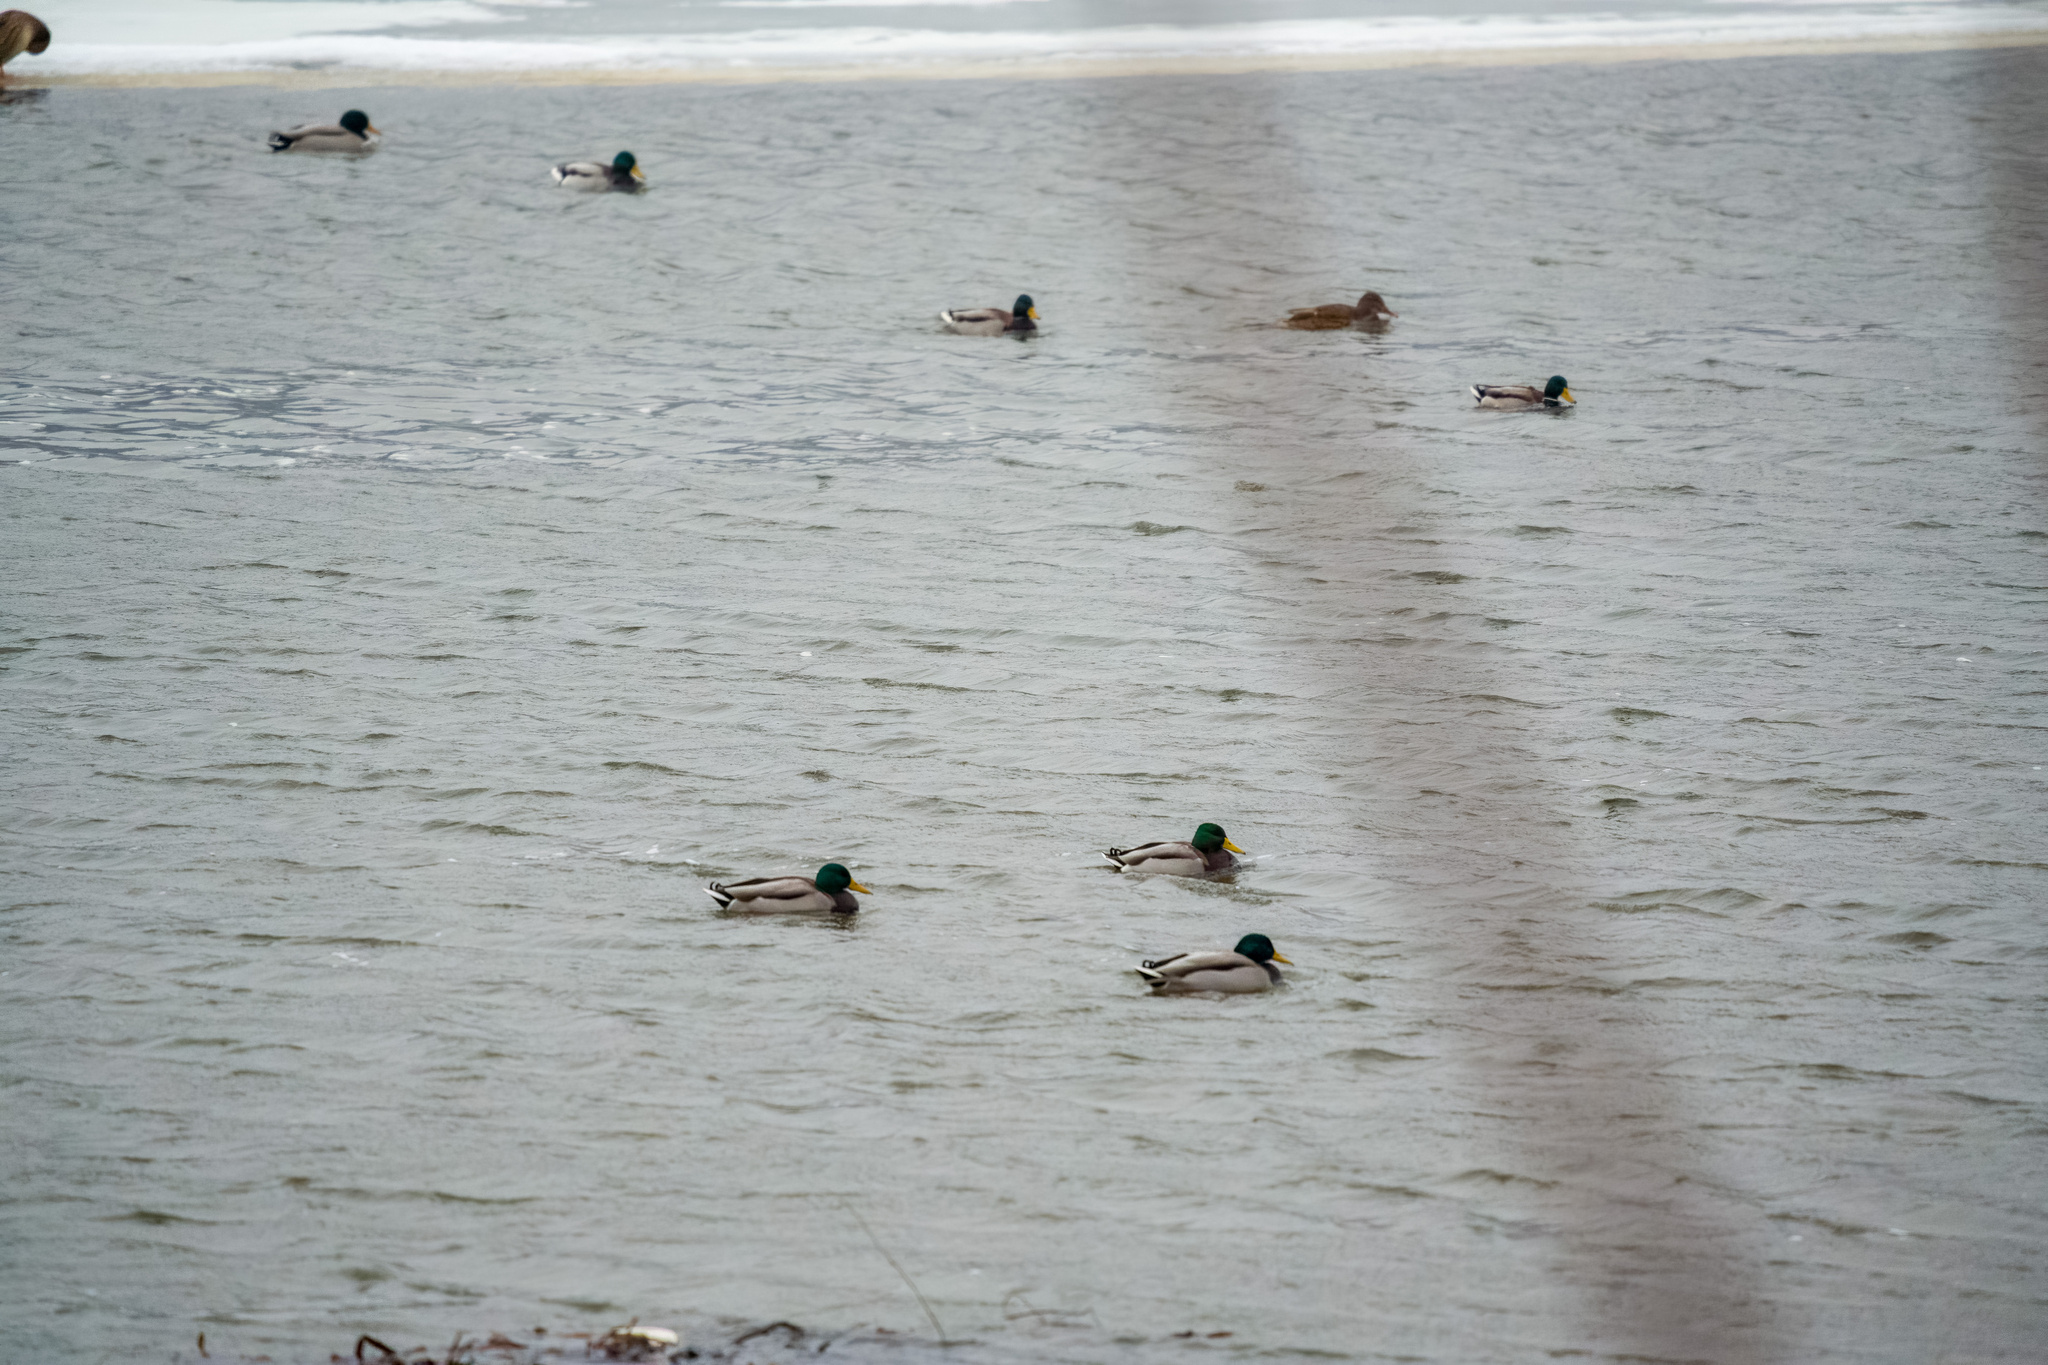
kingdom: Animalia
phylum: Chordata
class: Aves
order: Anseriformes
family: Anatidae
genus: Anas
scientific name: Anas platyrhynchos
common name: Mallard
